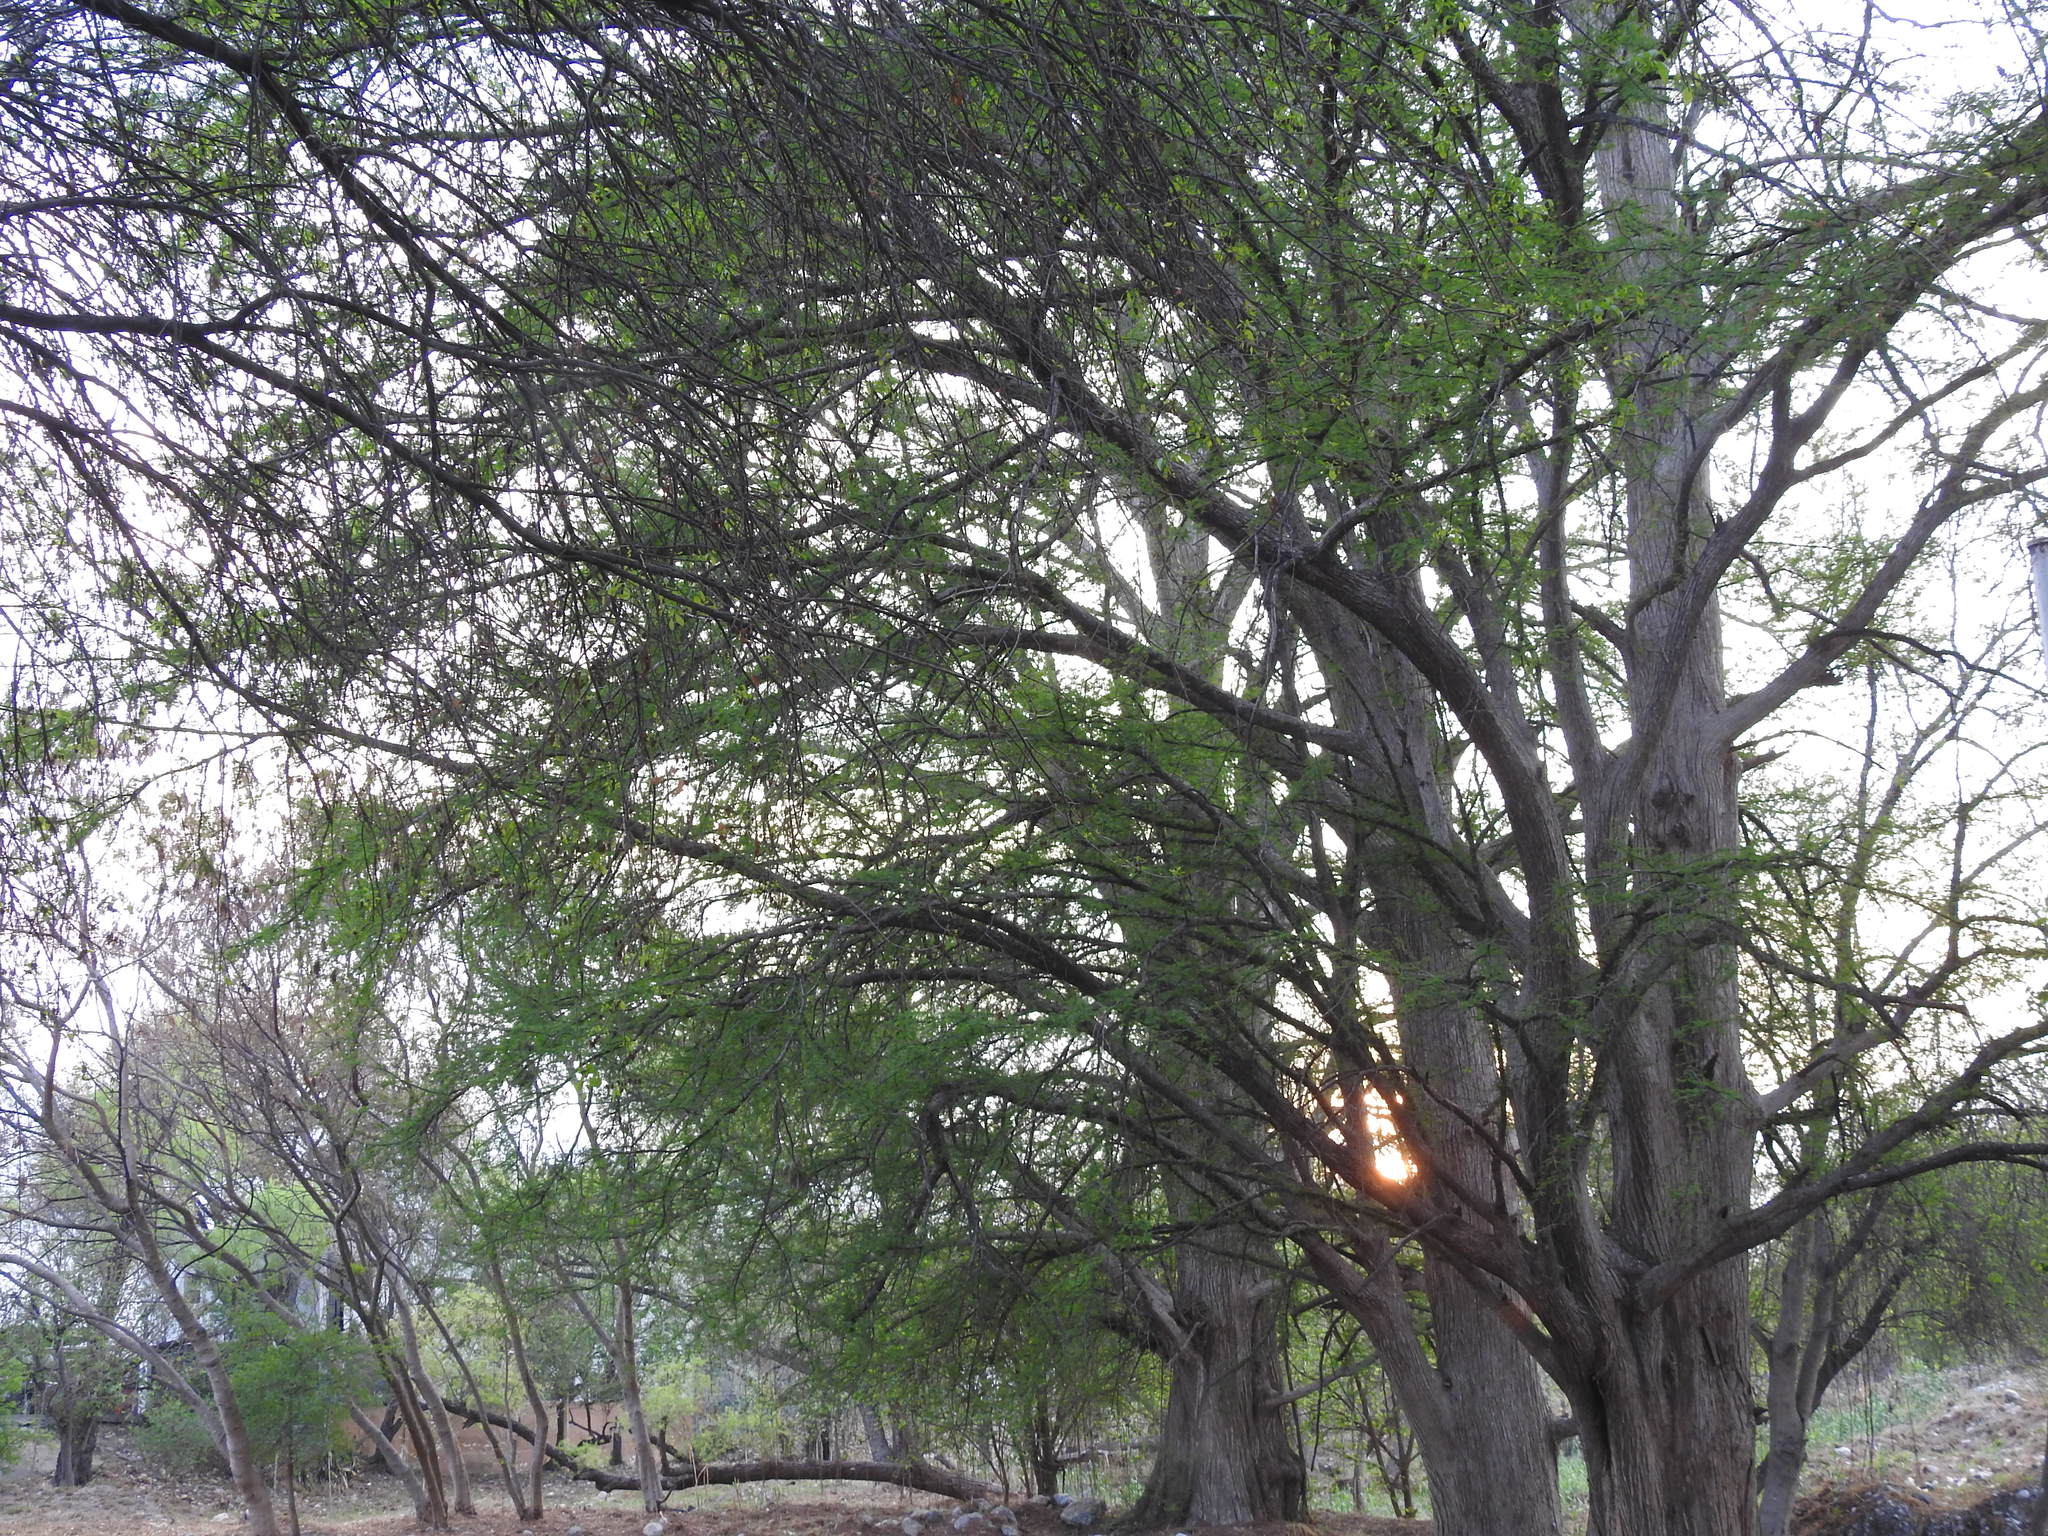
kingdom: Plantae
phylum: Tracheophyta
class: Pinopsida
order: Pinales
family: Cupressaceae
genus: Taxodium
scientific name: Taxodium mucronatum
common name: Montezume bald cypress
